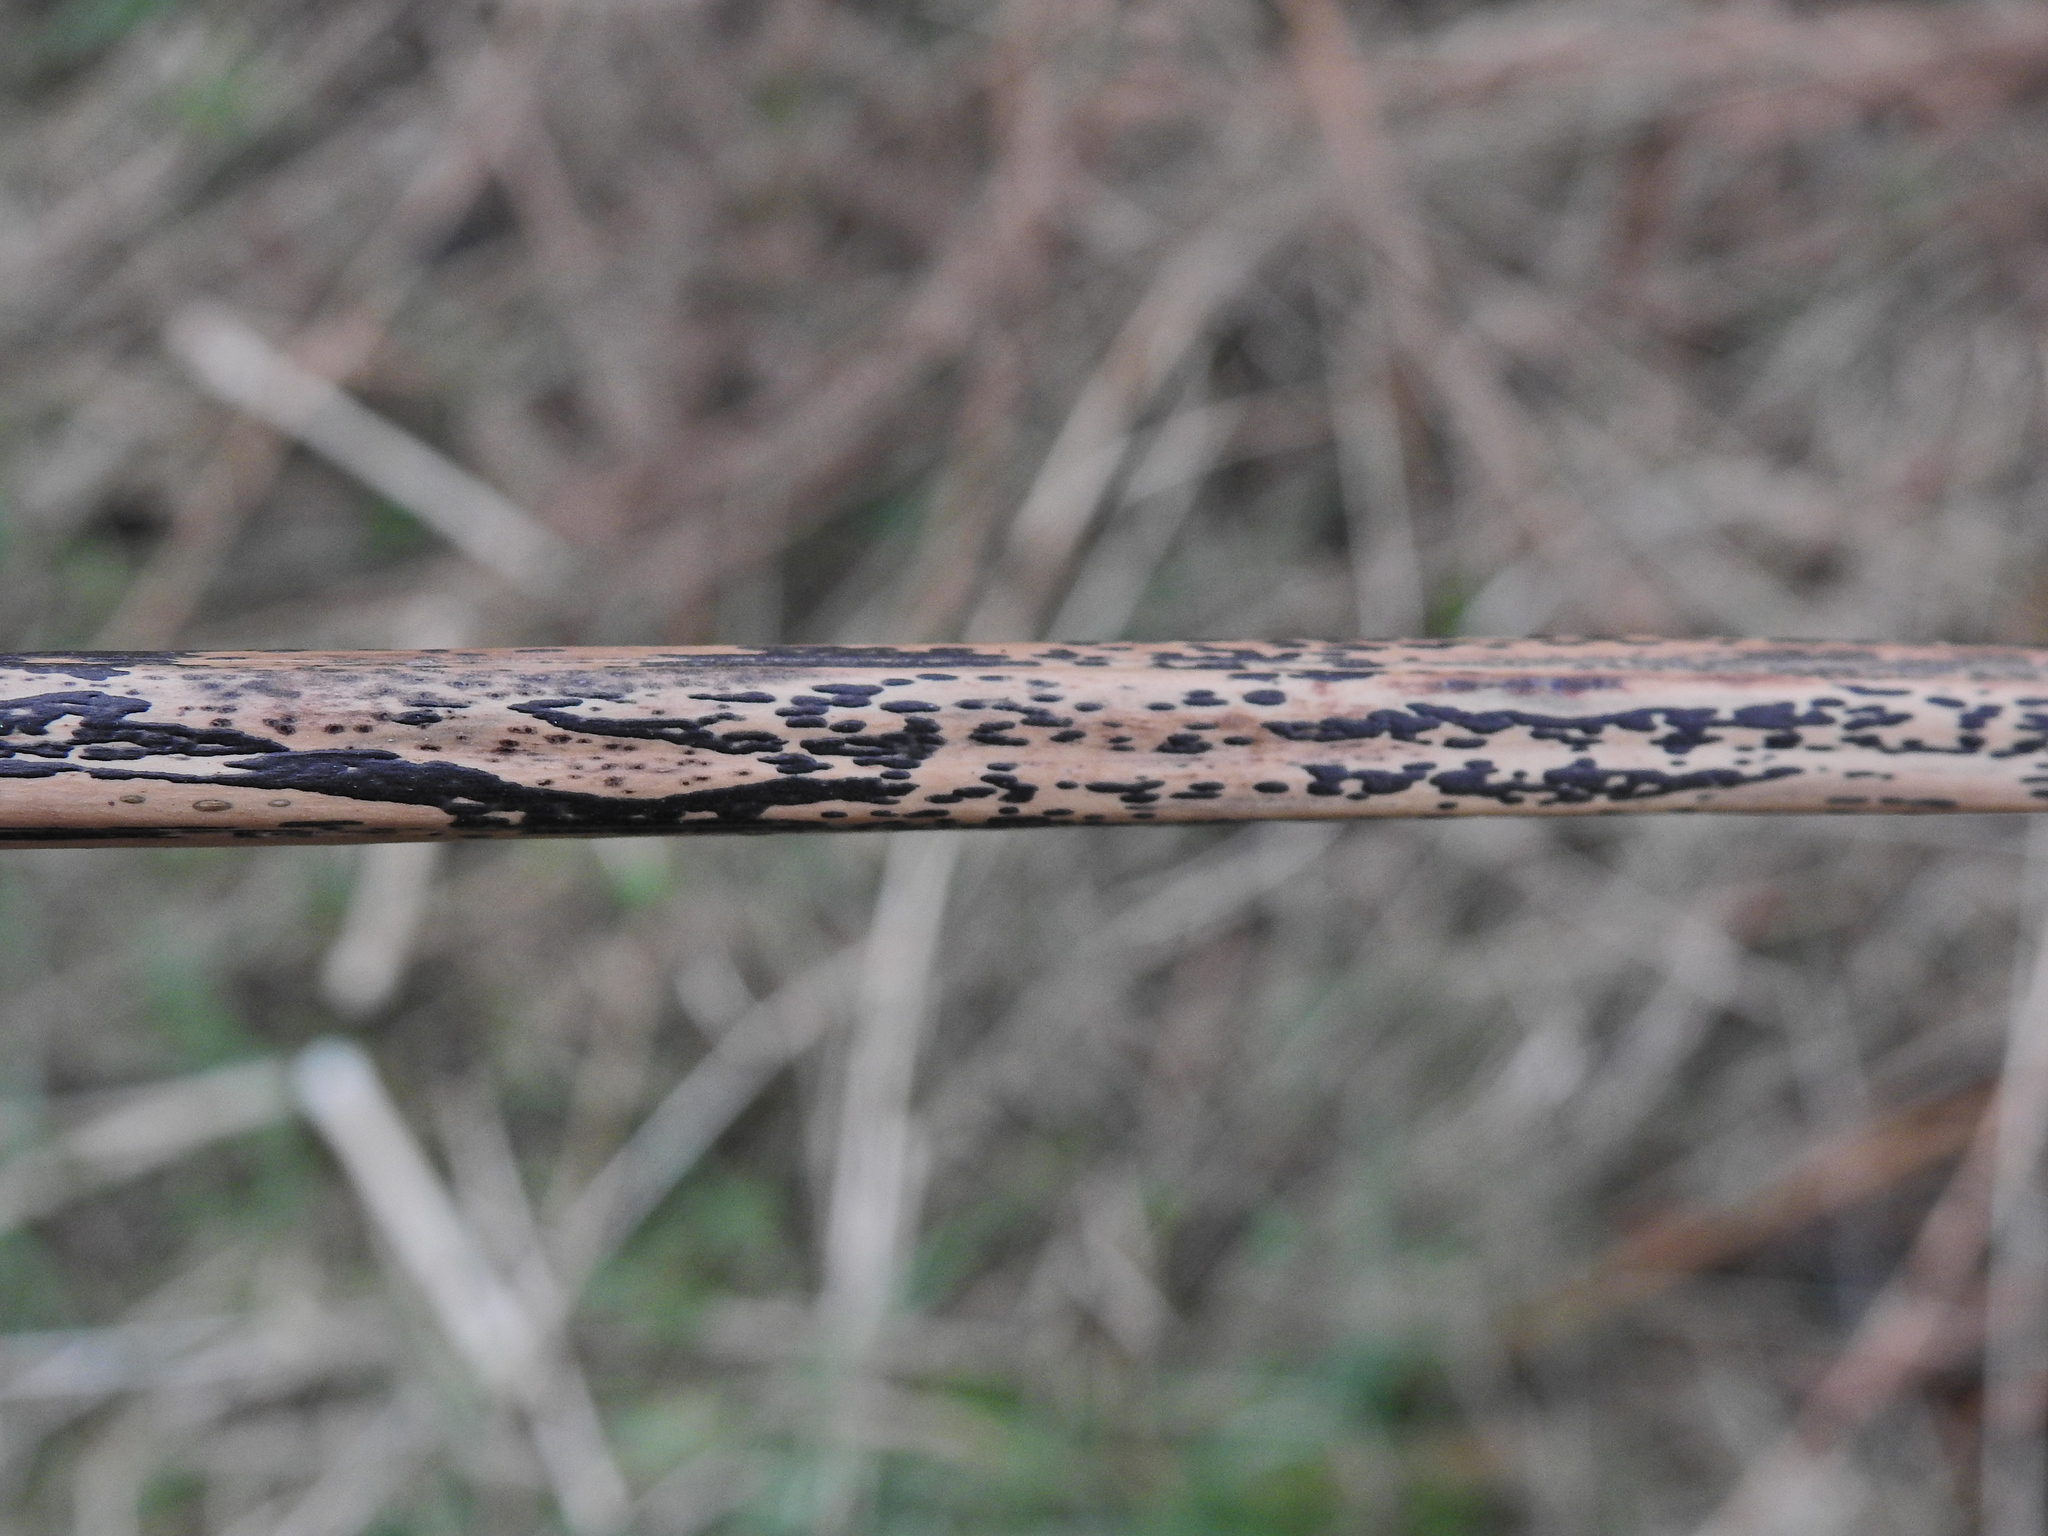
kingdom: Fungi
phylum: Ascomycota
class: Dothideomycetes
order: Pleosporales
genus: Rhopographus
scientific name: Rhopographus filicinus
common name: Bracken map
